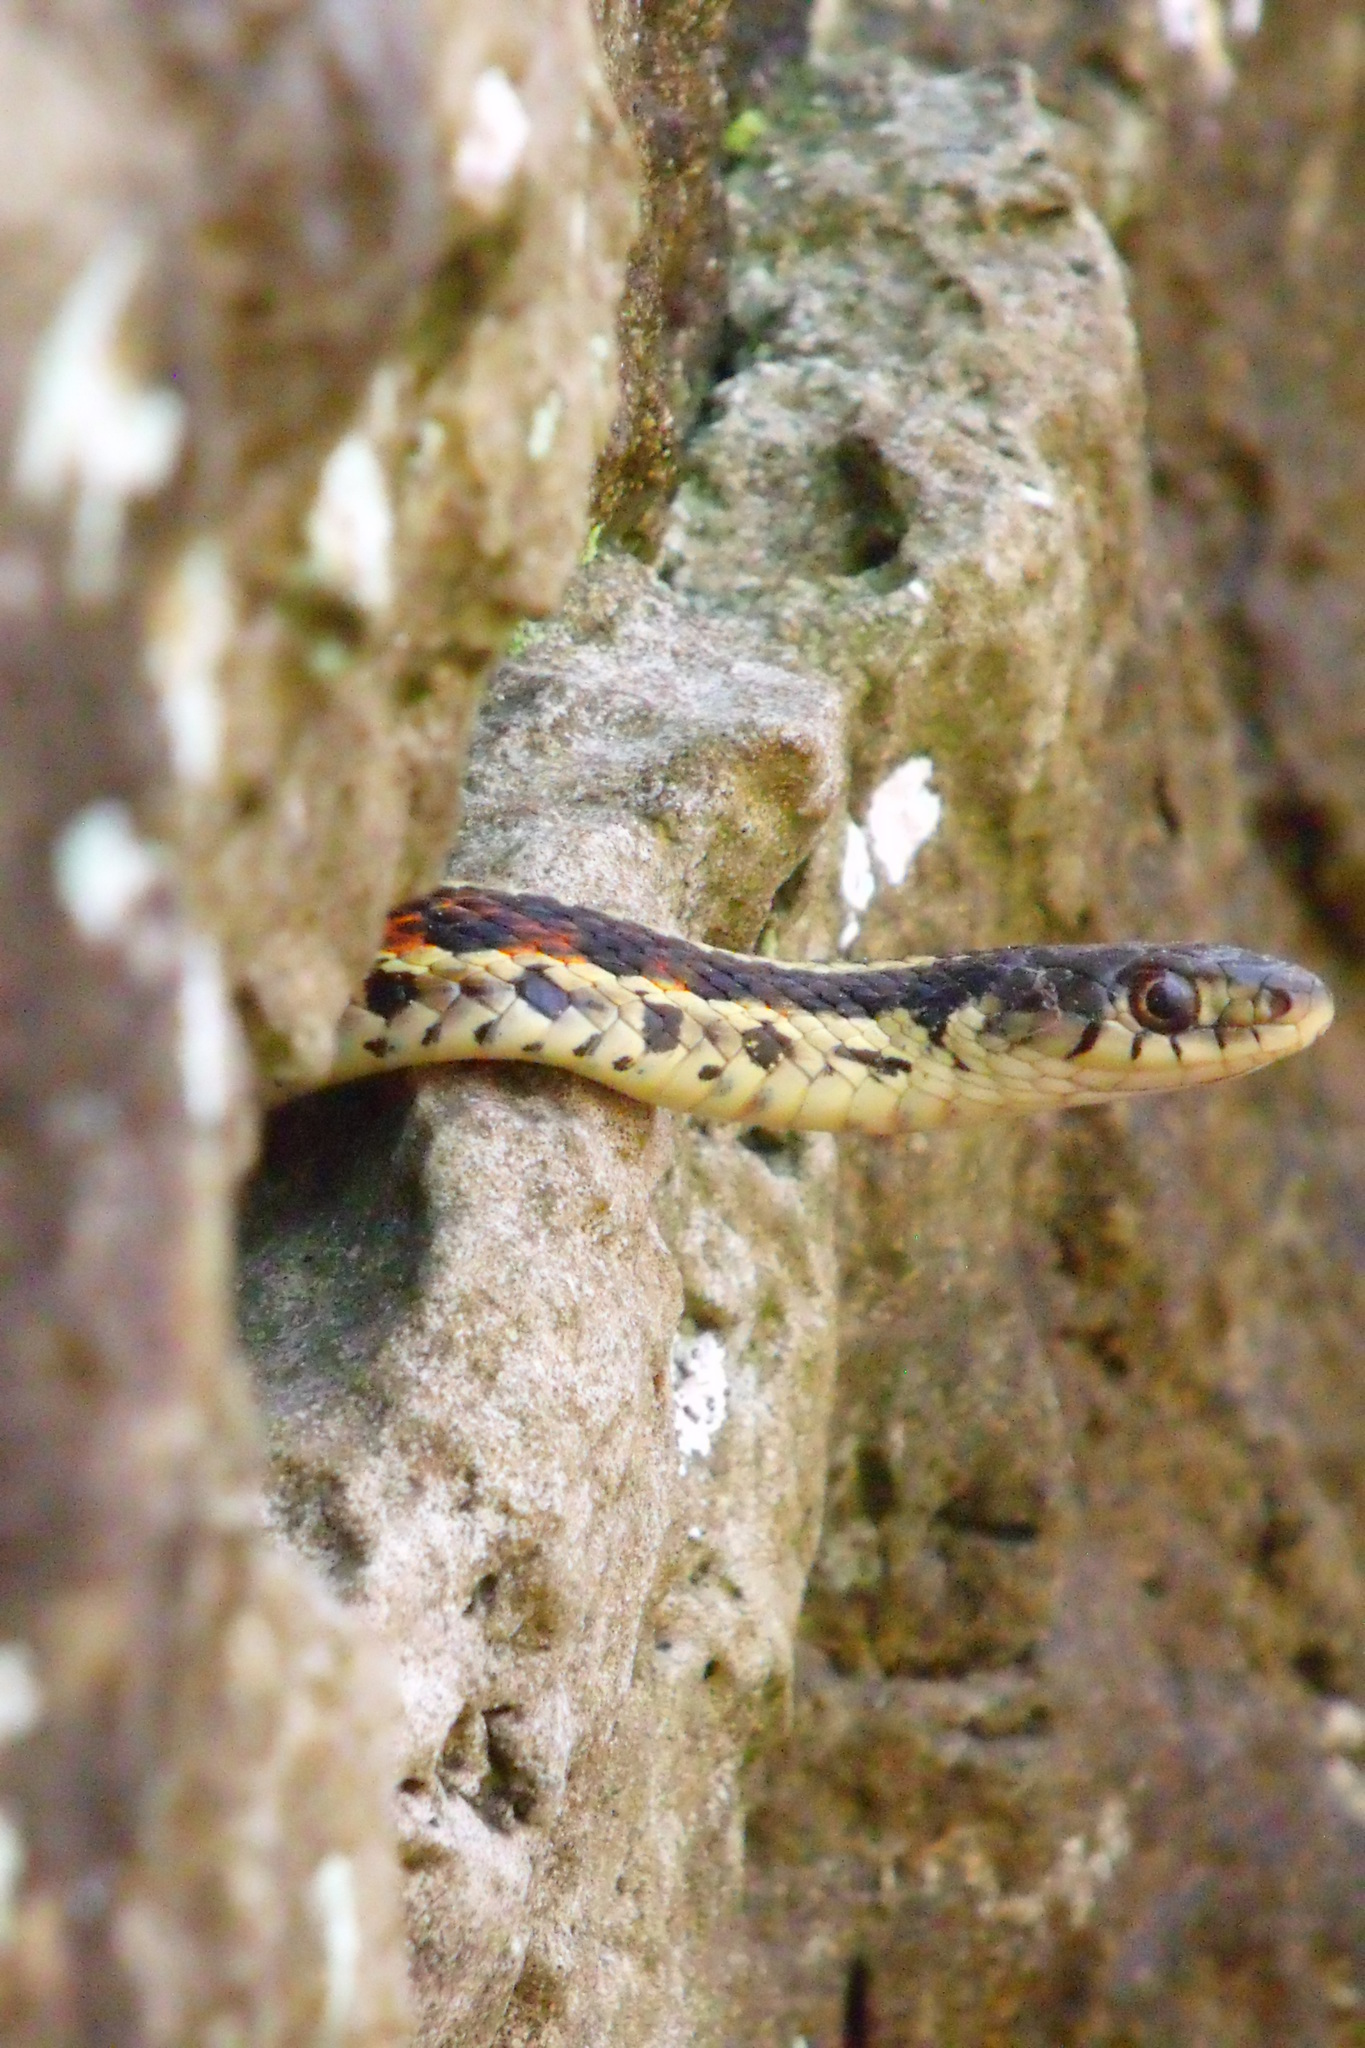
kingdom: Animalia
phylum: Chordata
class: Squamata
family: Colubridae
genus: Thamnophis
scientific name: Thamnophis sirtalis
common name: Common garter snake
